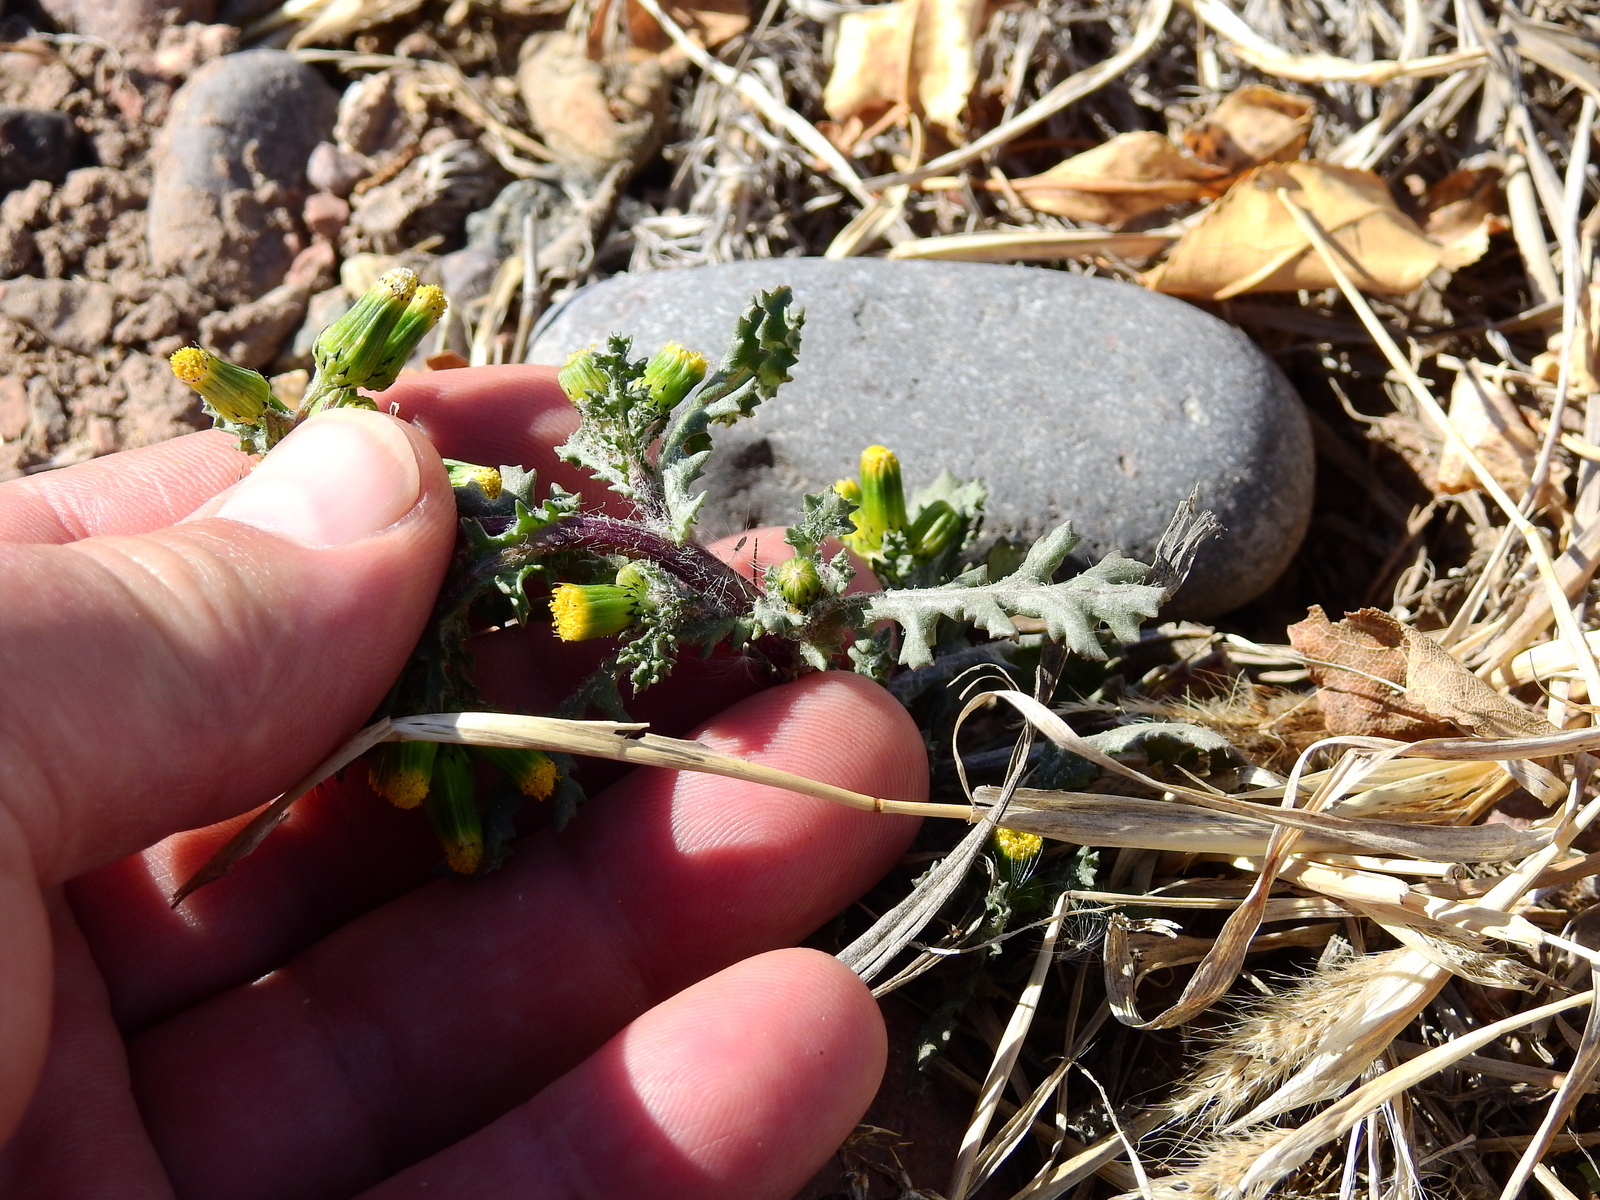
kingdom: Plantae
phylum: Tracheophyta
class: Magnoliopsida
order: Asterales
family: Asteraceae
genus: Senecio
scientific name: Senecio vulgaris
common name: Old-man-in-the-spring
